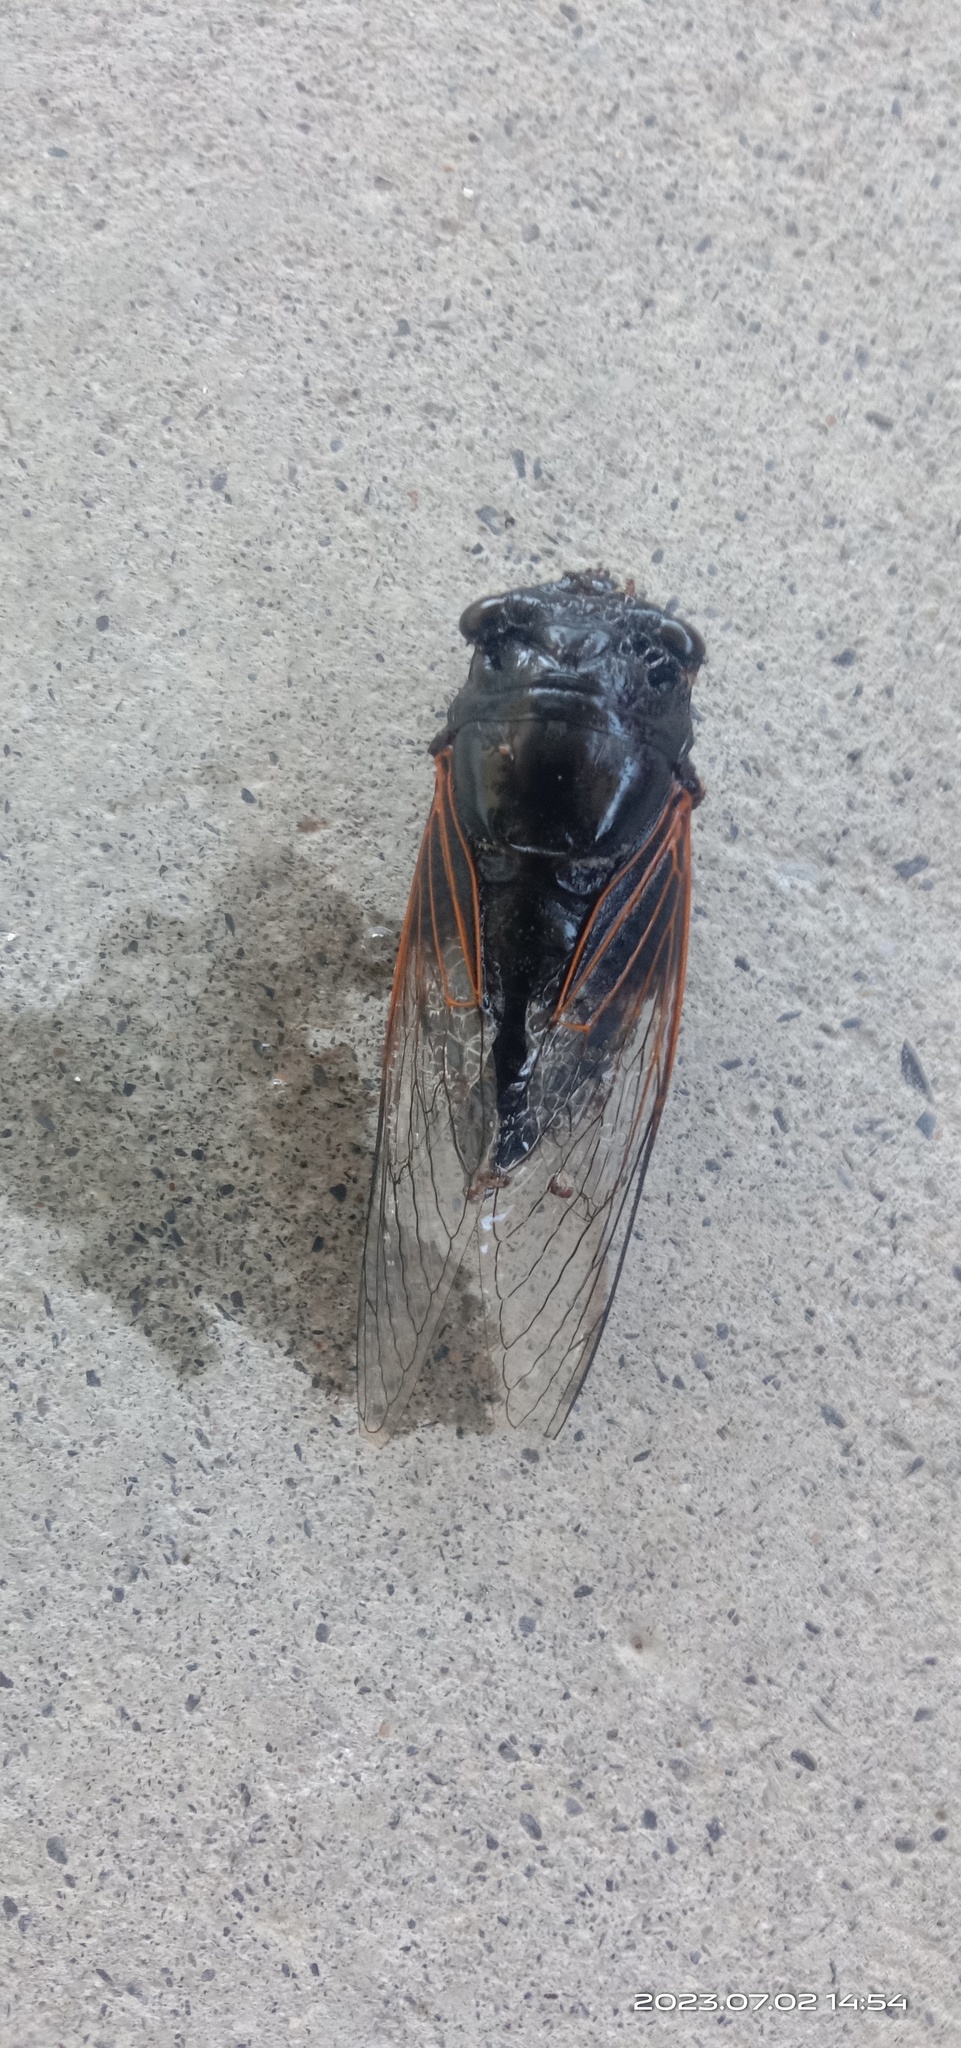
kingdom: Animalia
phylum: Arthropoda
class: Insecta
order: Hemiptera
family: Cicadidae
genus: Cryptotympana
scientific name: Cryptotympana atrata
